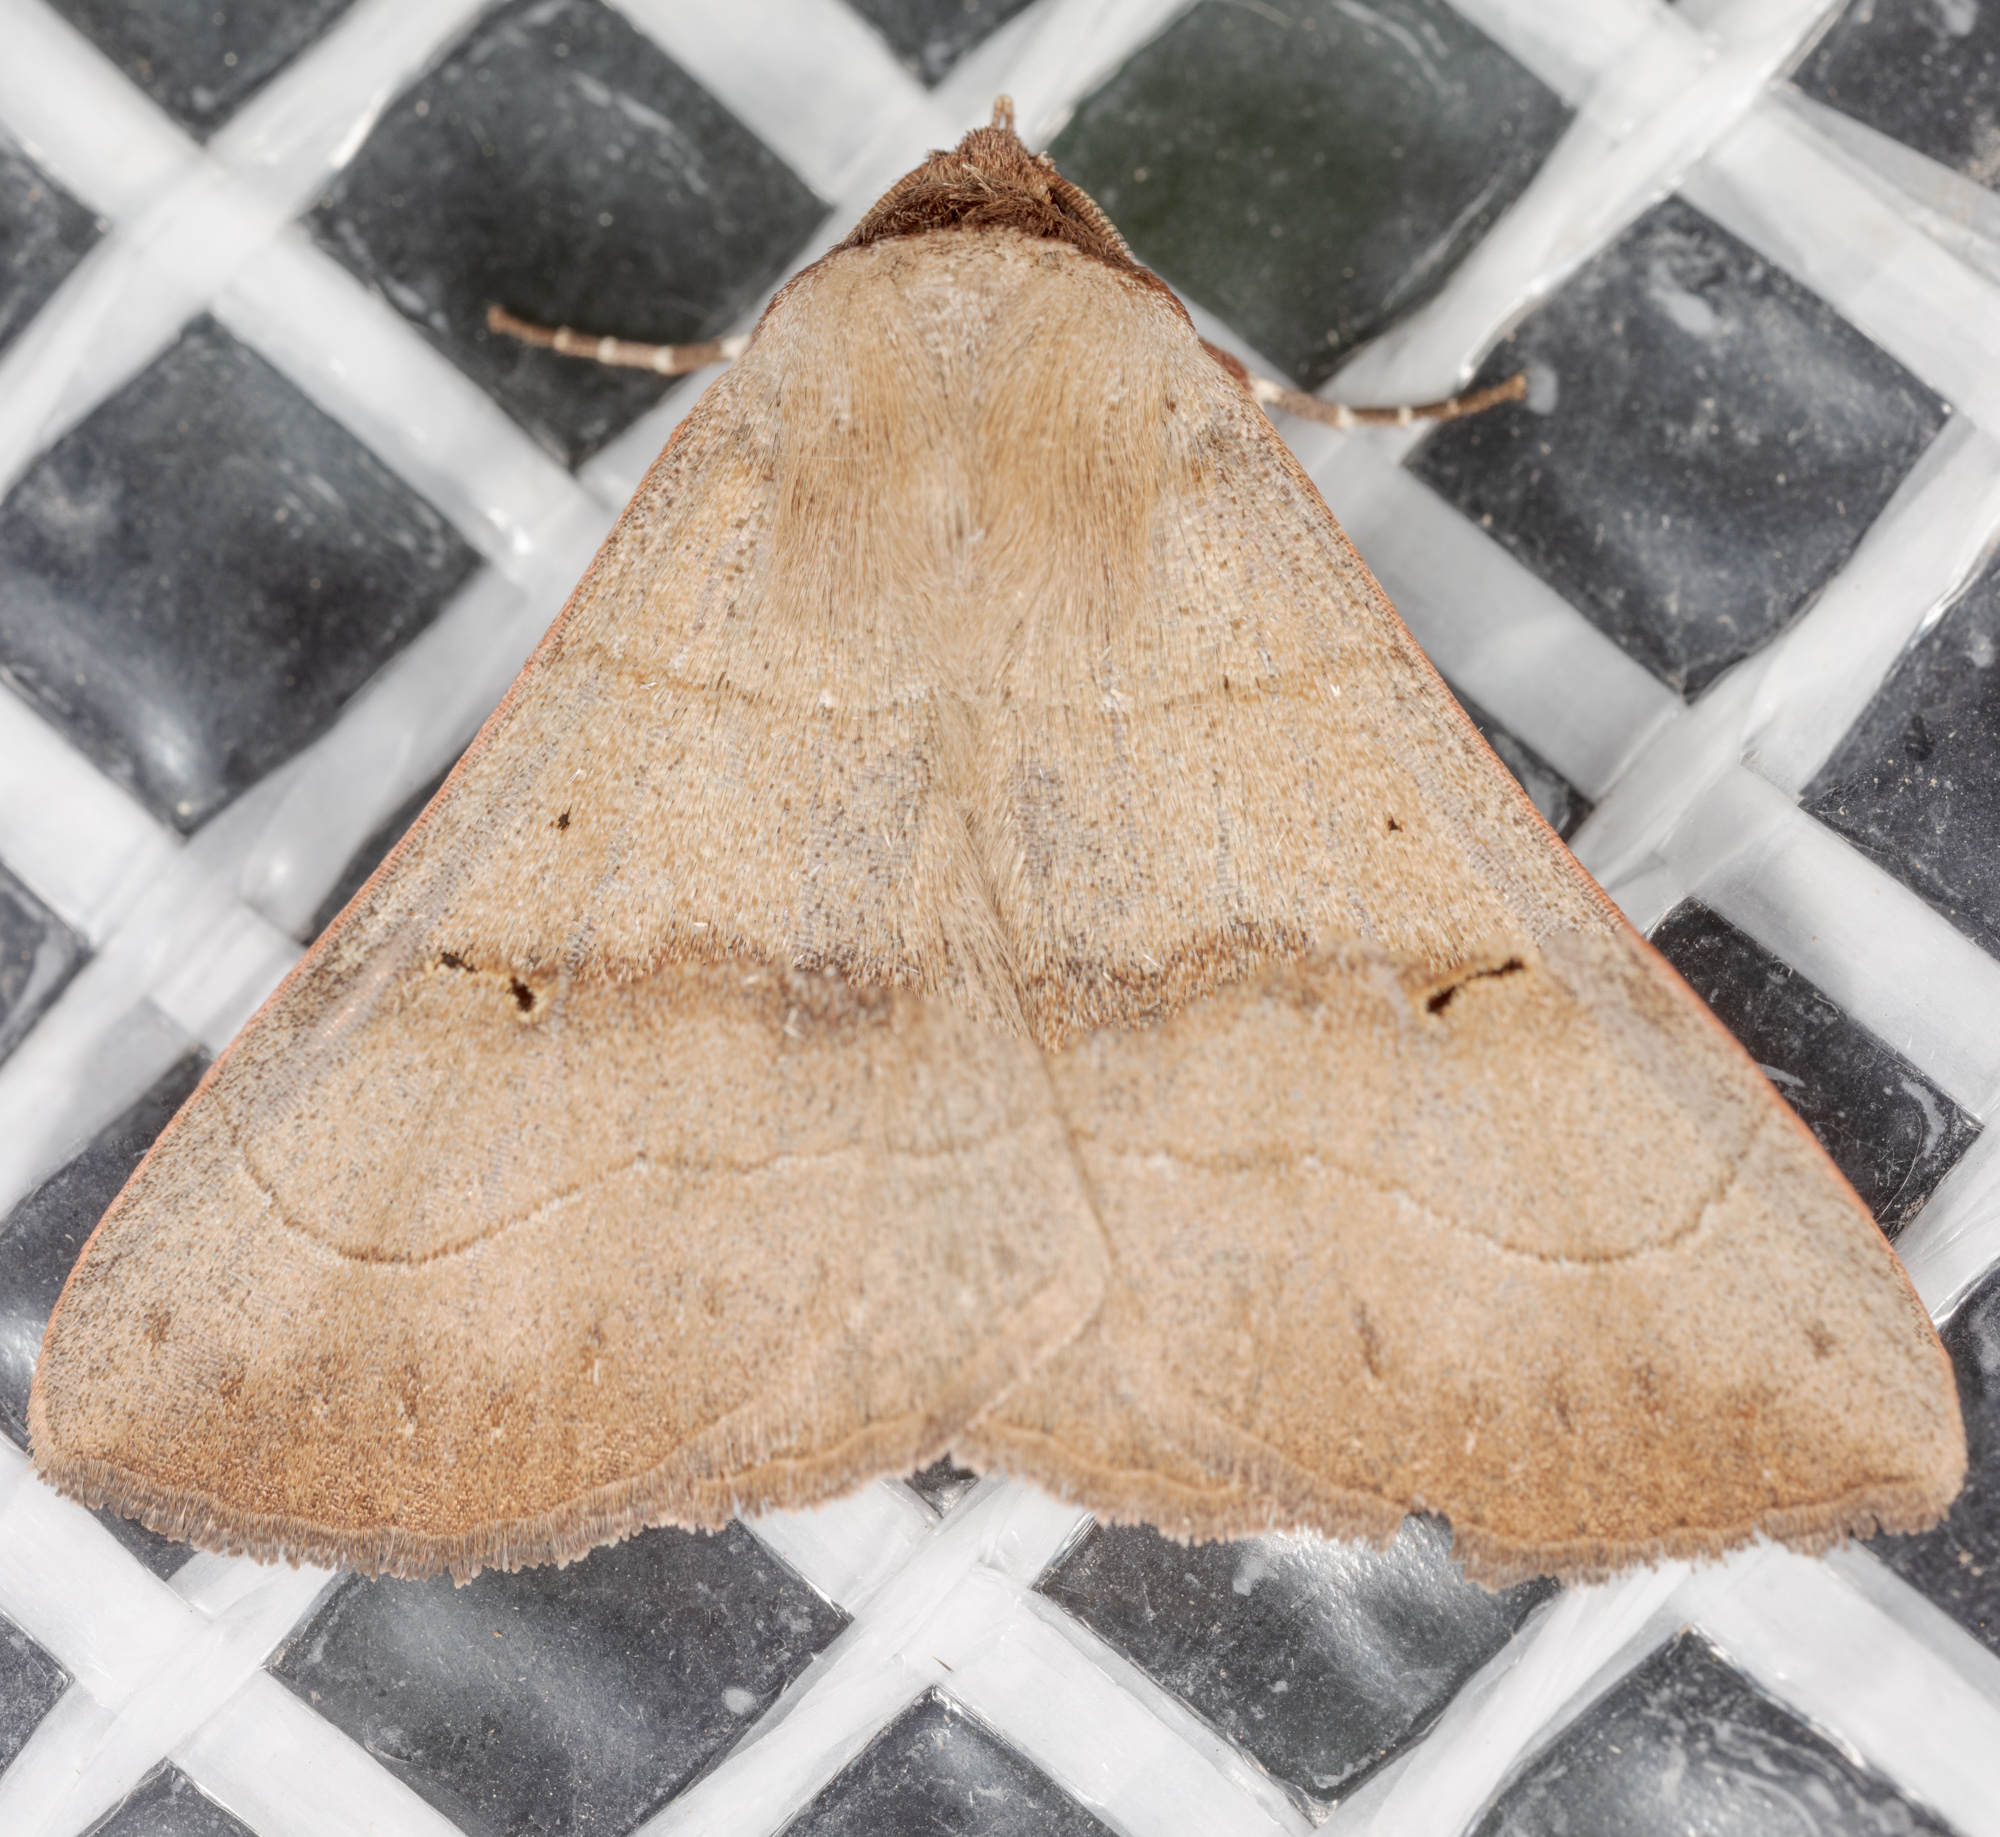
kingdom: Animalia
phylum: Arthropoda
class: Insecta
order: Lepidoptera
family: Erebidae
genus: Panopoda
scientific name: Panopoda carneicosta
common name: Brown panopoda moth
